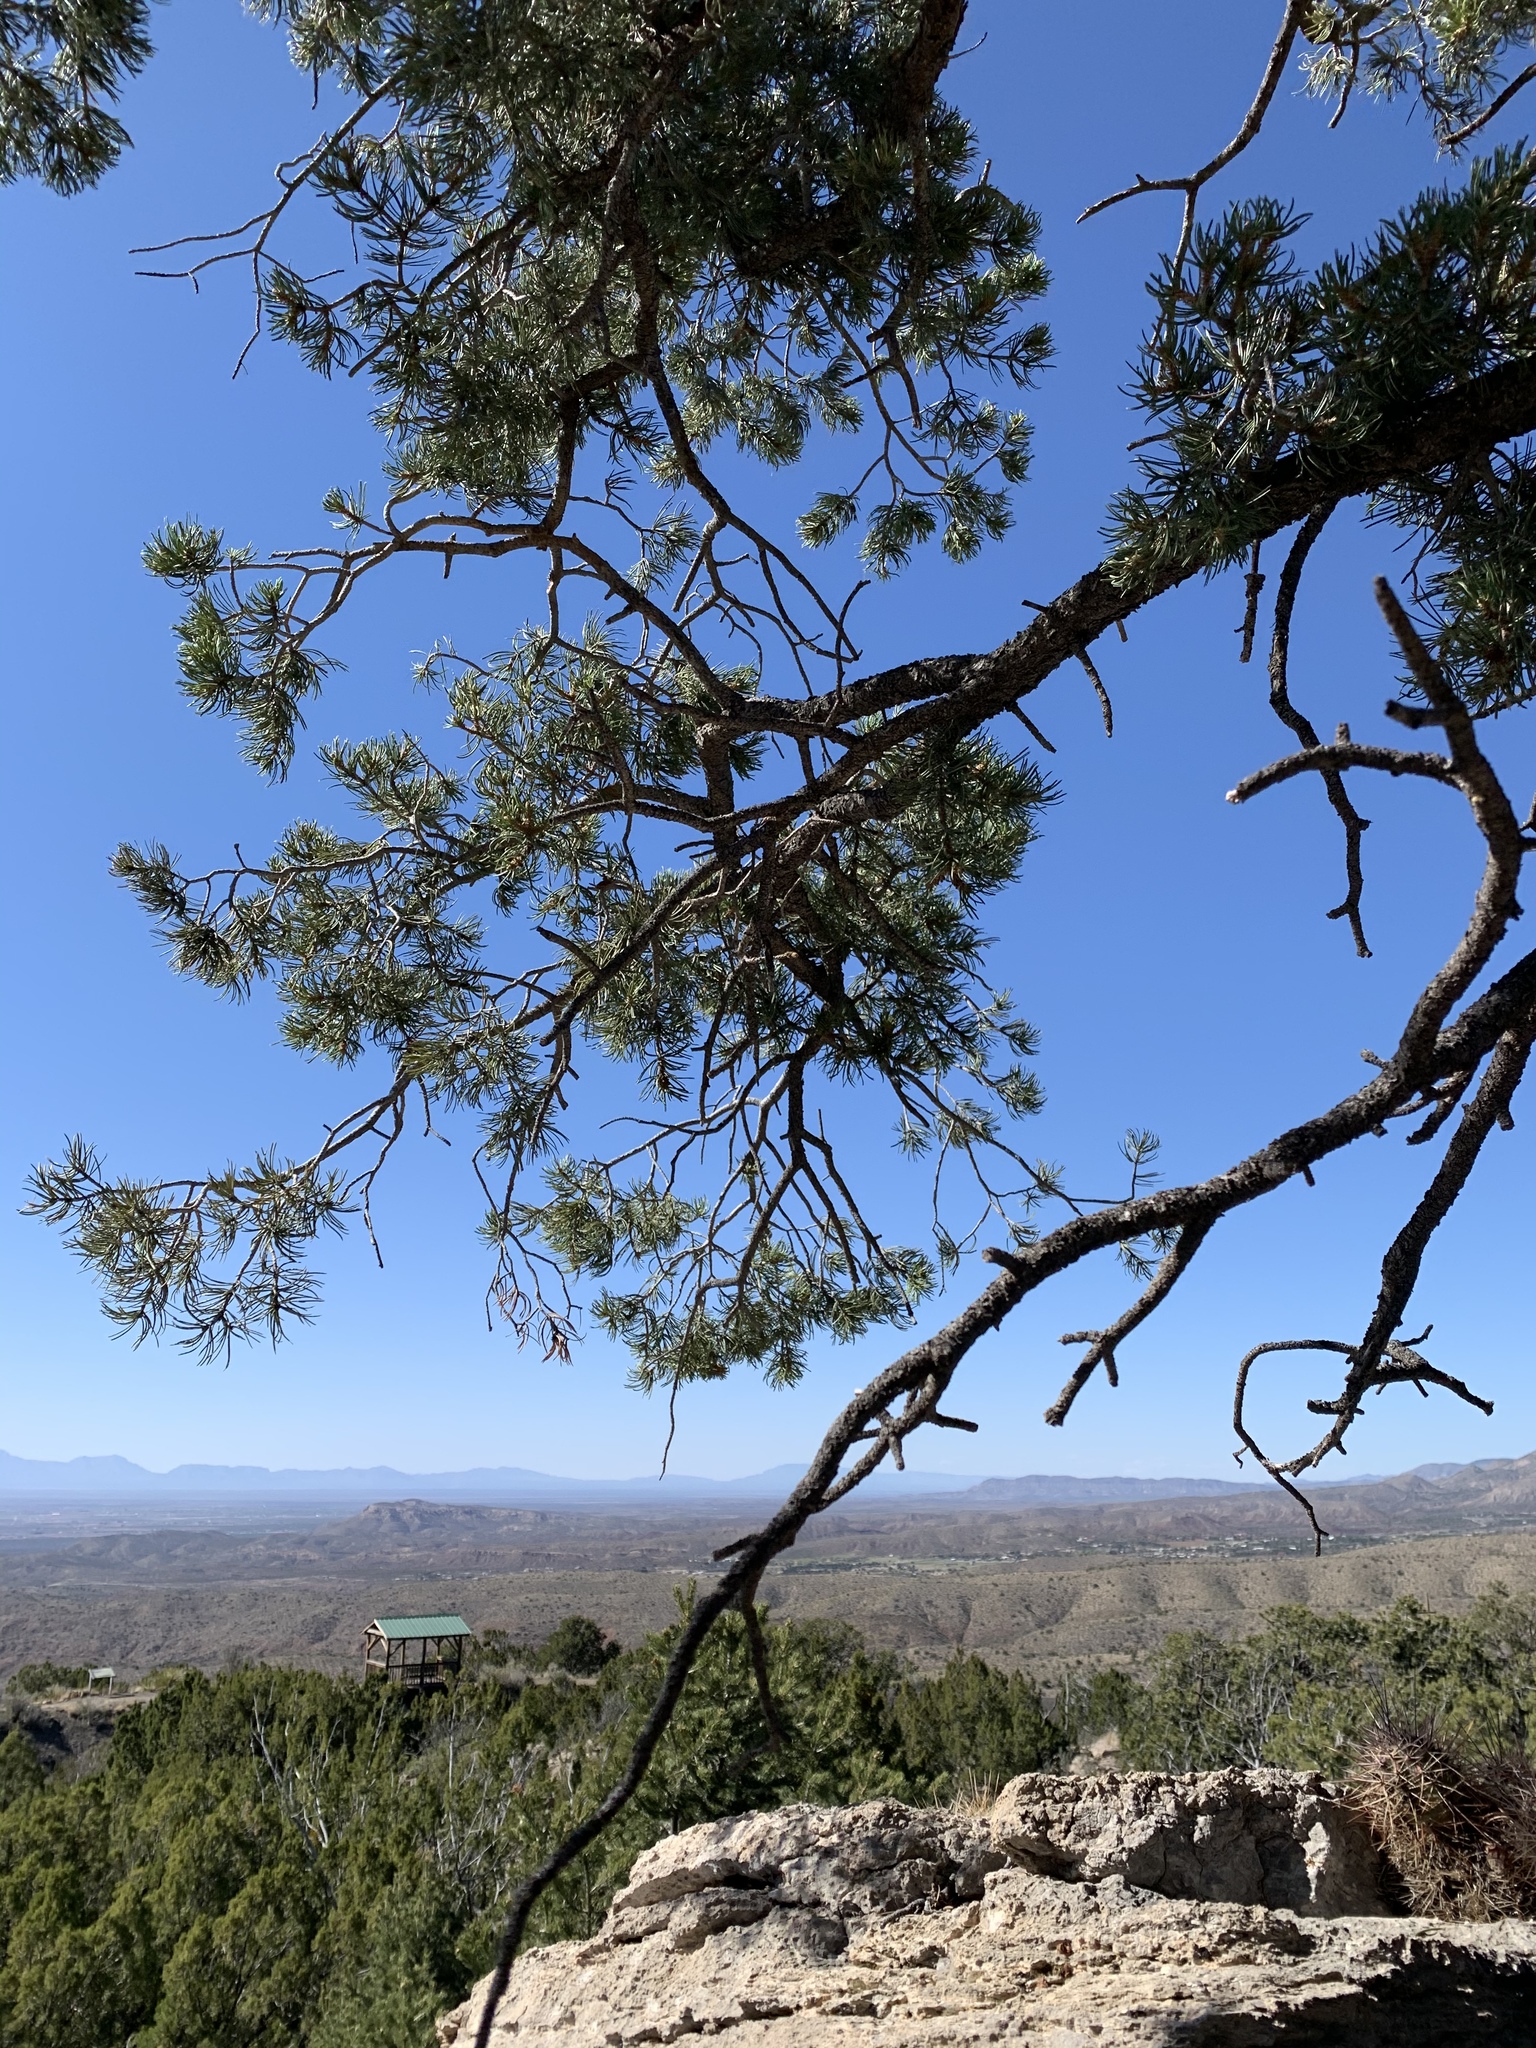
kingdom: Plantae
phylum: Tracheophyta
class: Pinopsida
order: Pinales
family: Pinaceae
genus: Pinus
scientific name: Pinus edulis
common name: Colorado pinyon
